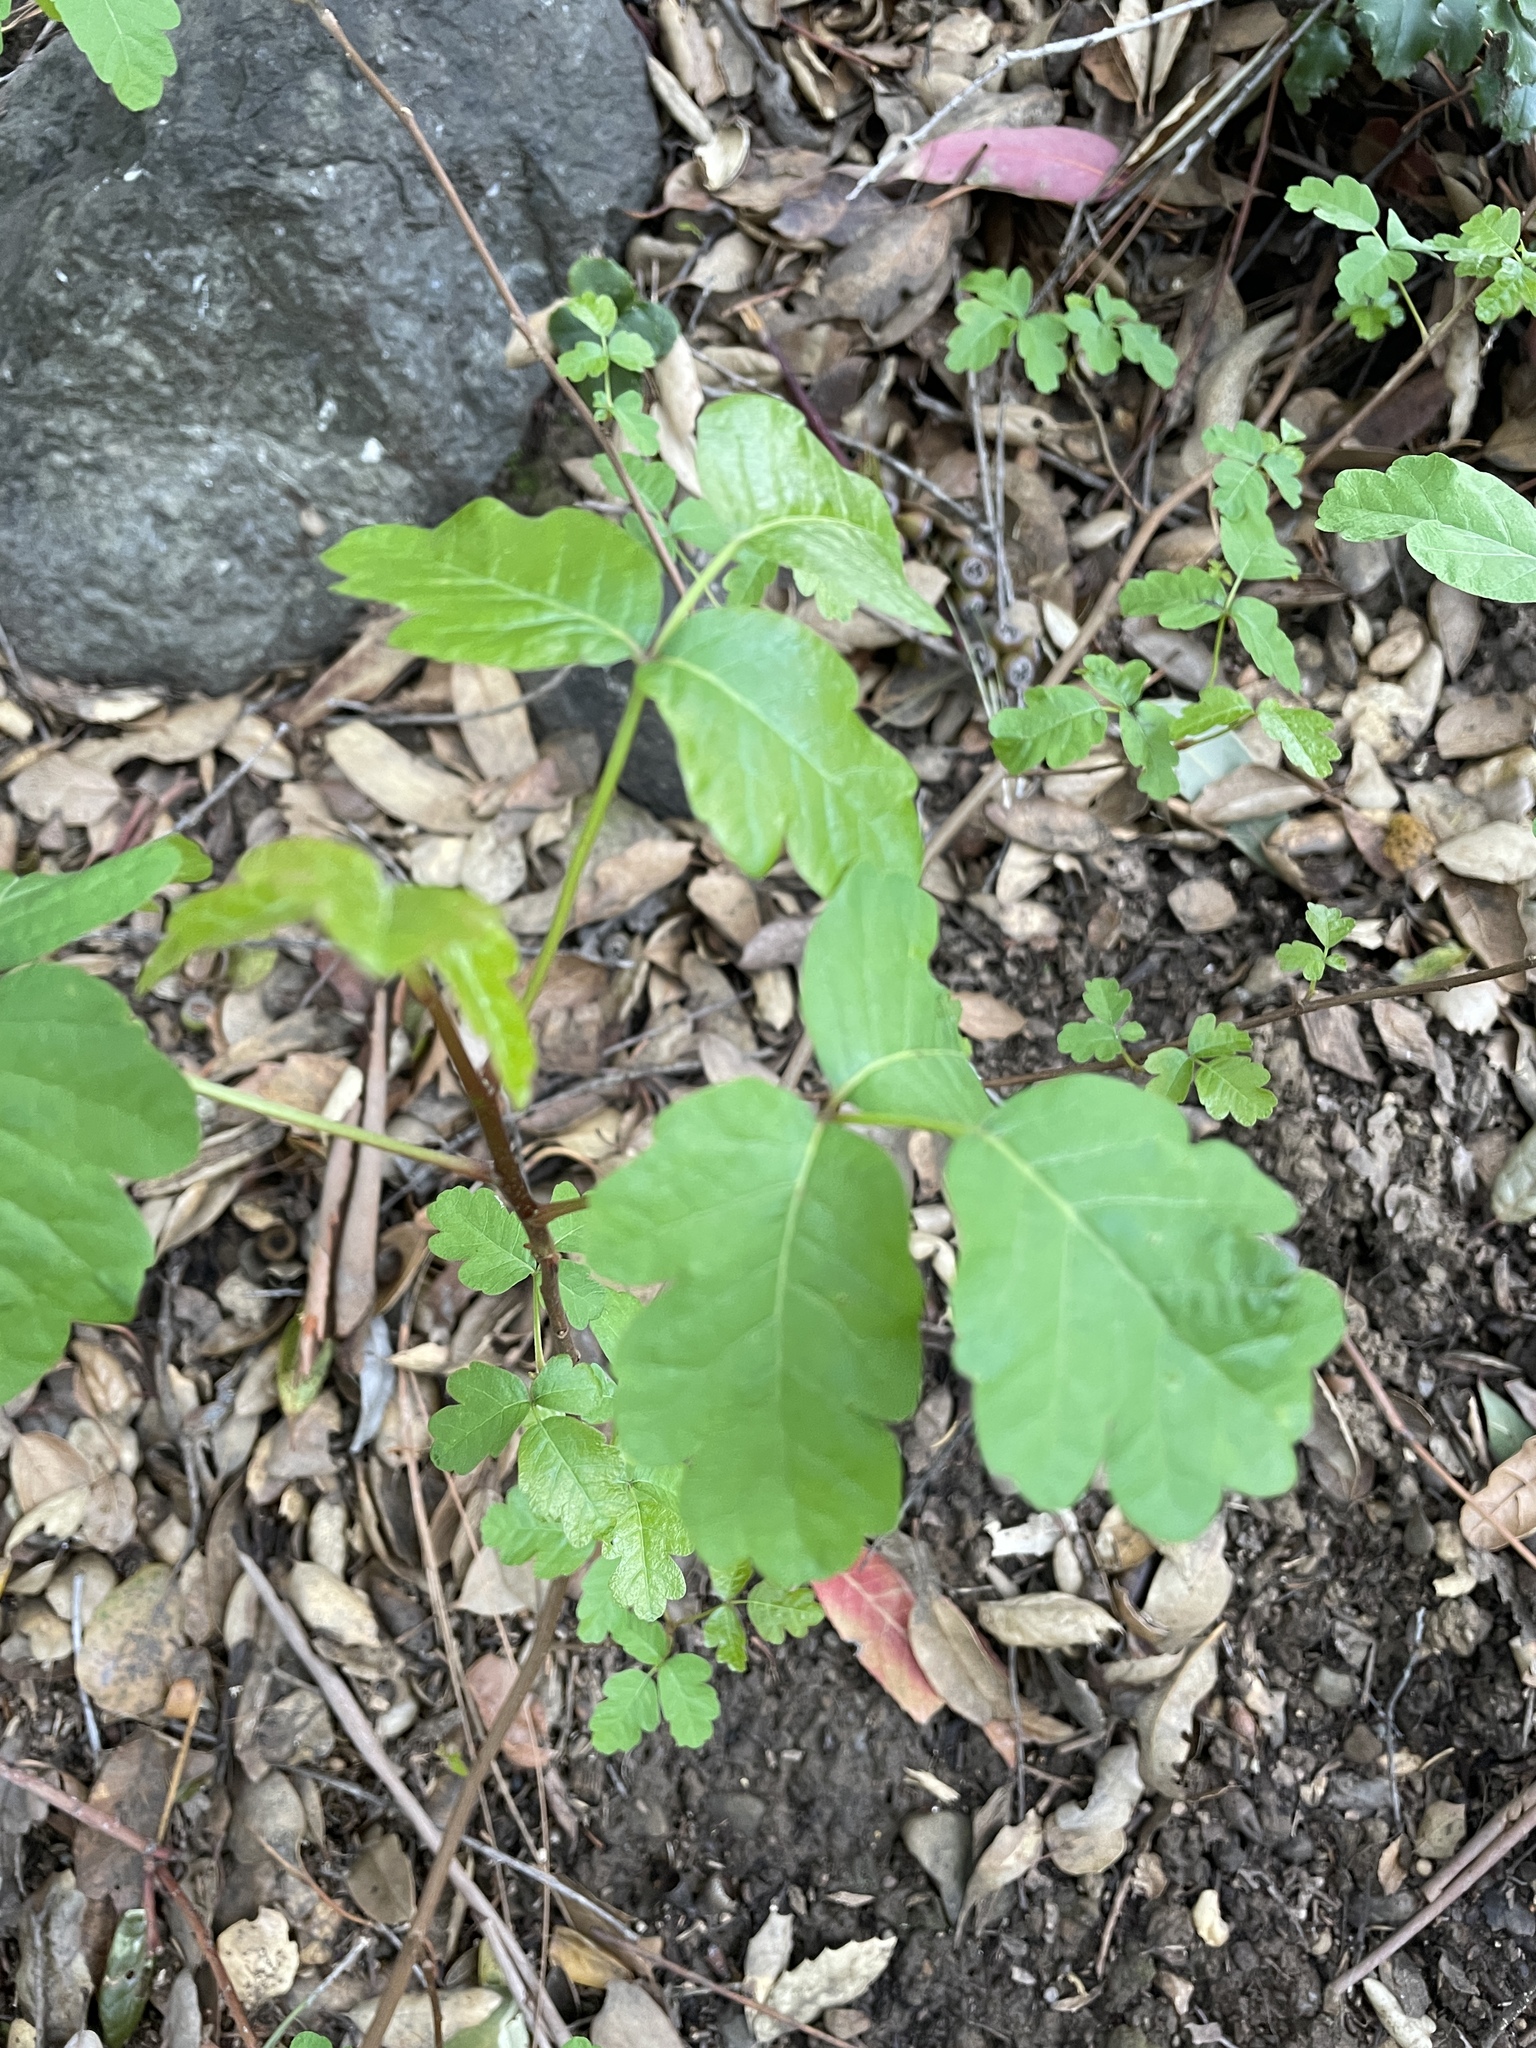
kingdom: Plantae
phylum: Tracheophyta
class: Magnoliopsida
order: Sapindales
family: Anacardiaceae
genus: Toxicodendron
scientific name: Toxicodendron diversilobum
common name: Pacific poison-oak
